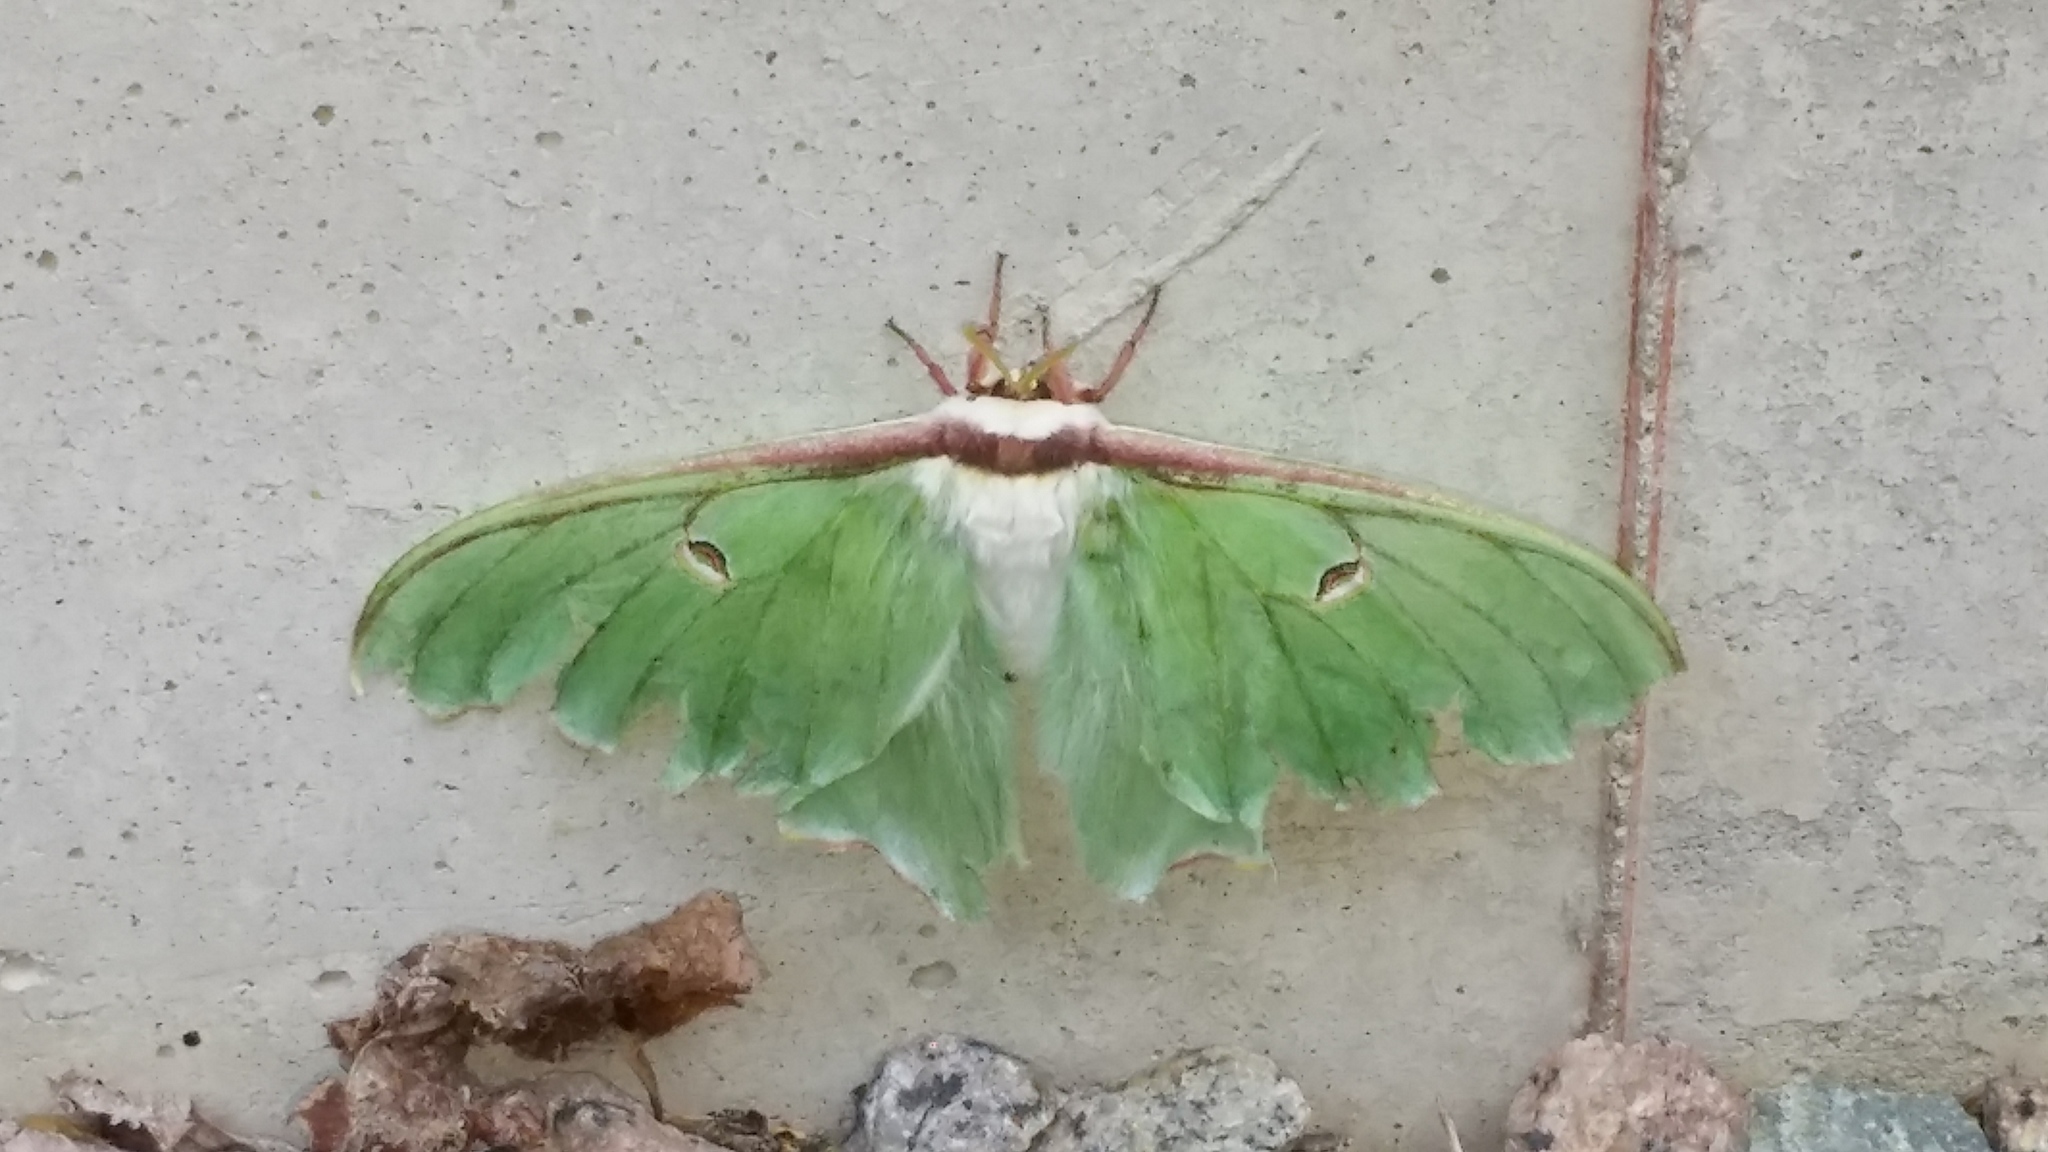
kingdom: Animalia
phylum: Arthropoda
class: Insecta
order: Lepidoptera
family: Saturniidae
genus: Actias
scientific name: Actias luna
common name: Luna moth
